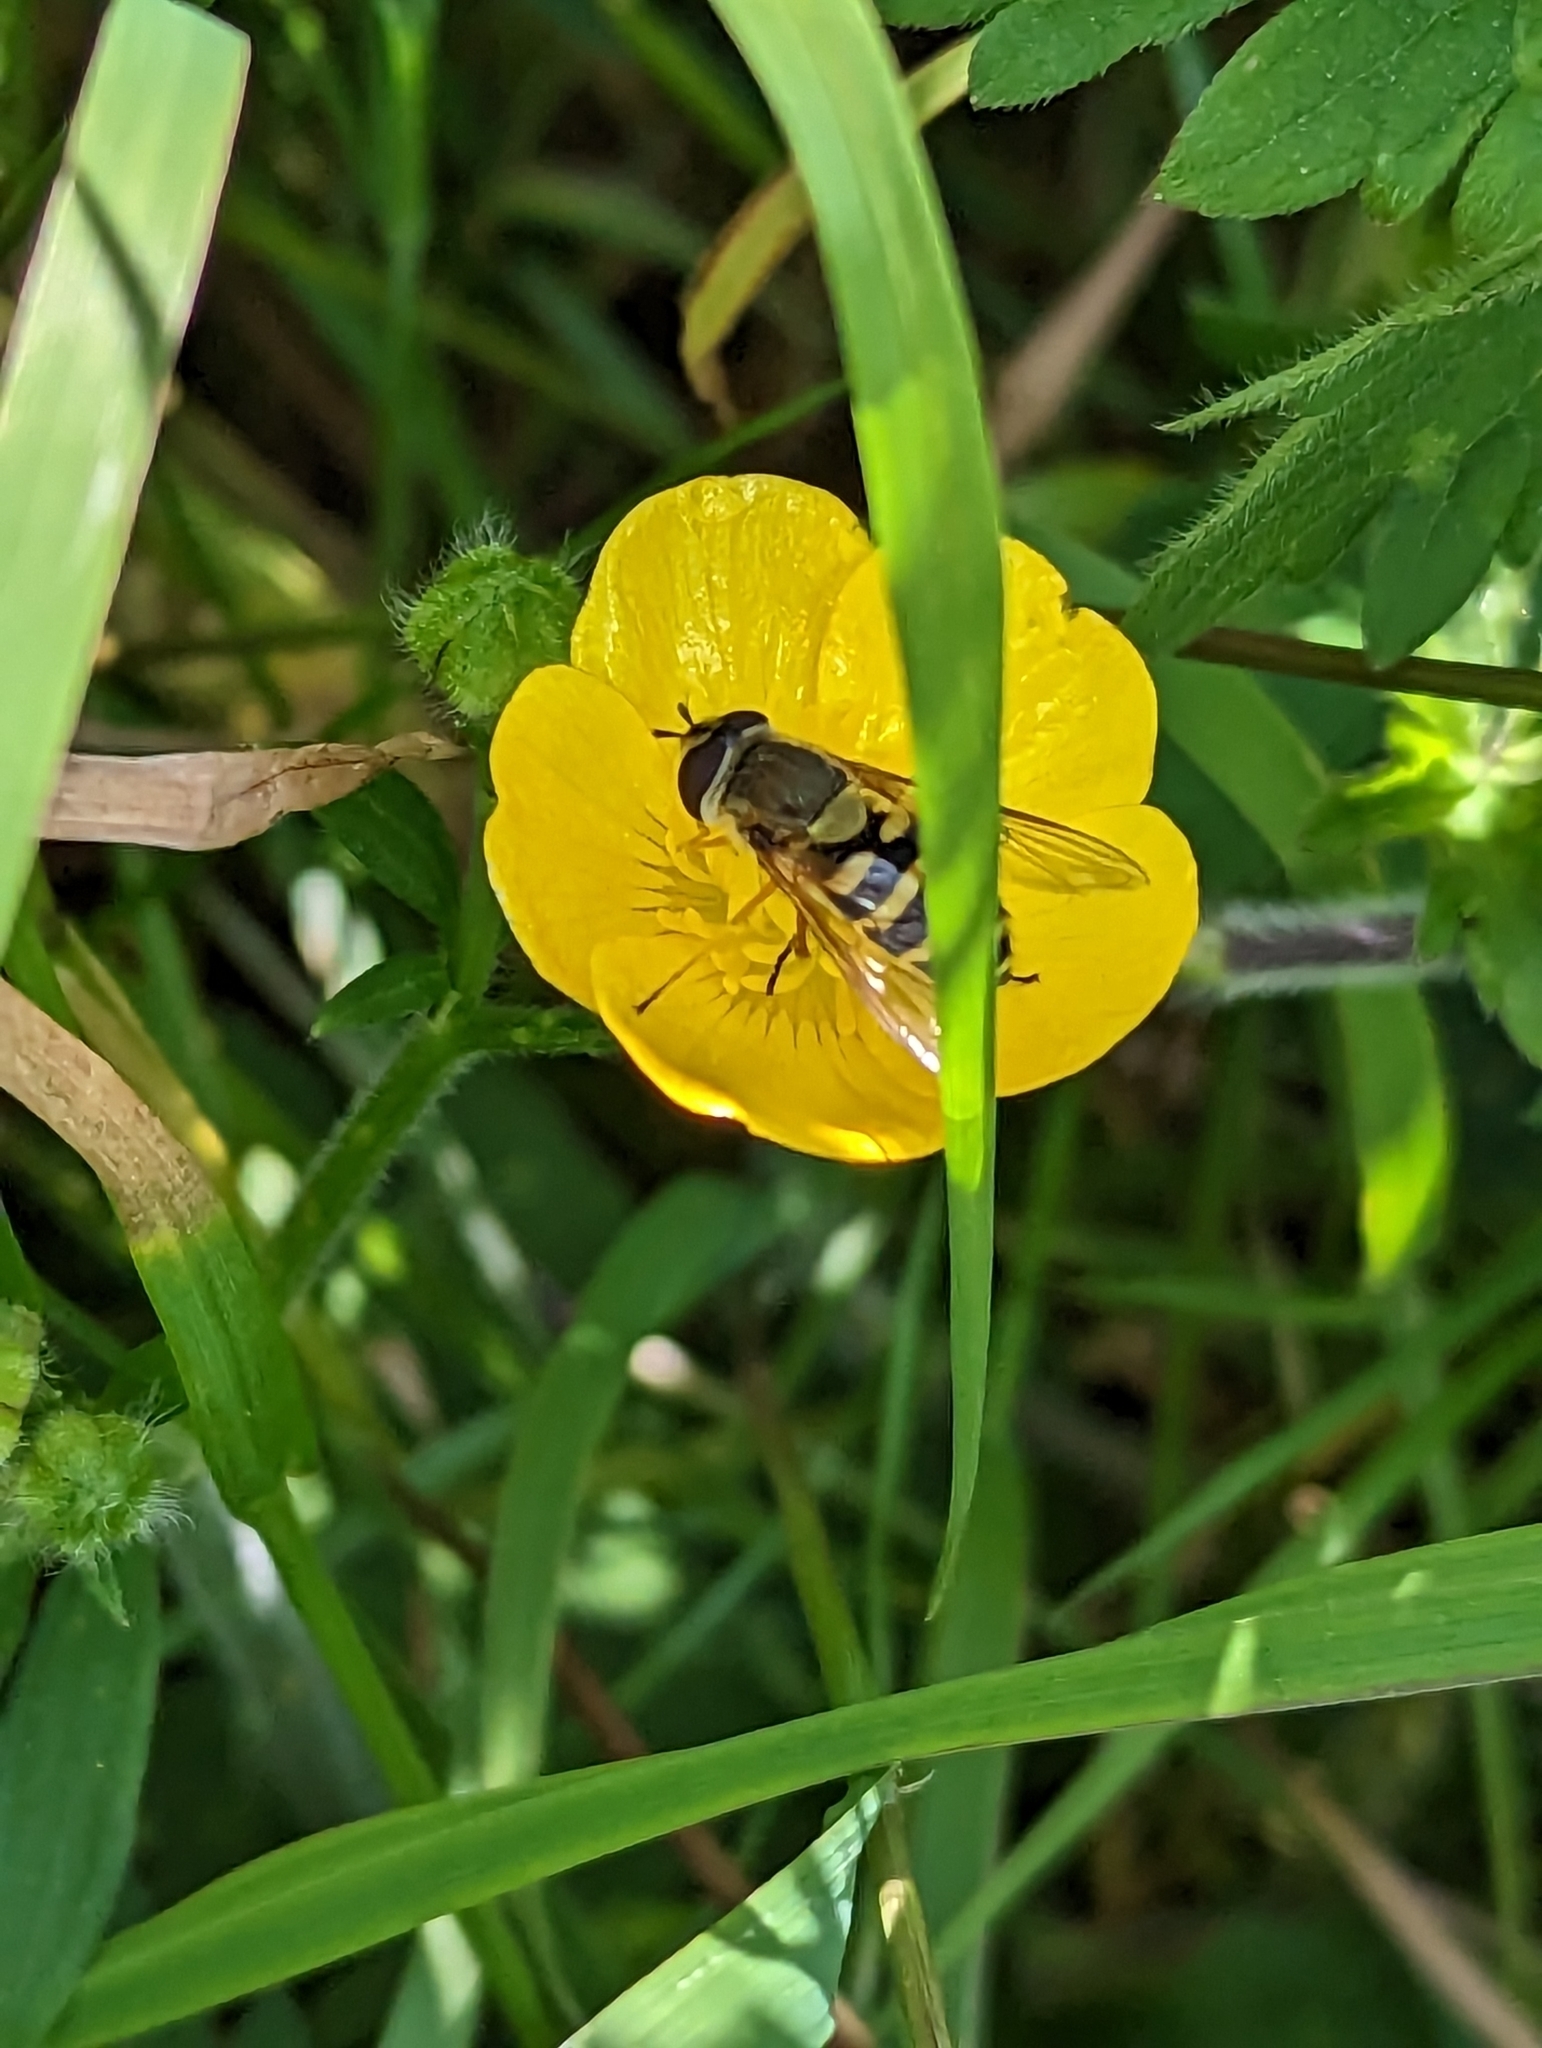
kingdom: Animalia
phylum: Arthropoda
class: Insecta
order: Diptera
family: Syrphidae
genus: Syrphus
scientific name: Syrphus ribesii
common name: Common flower fly
